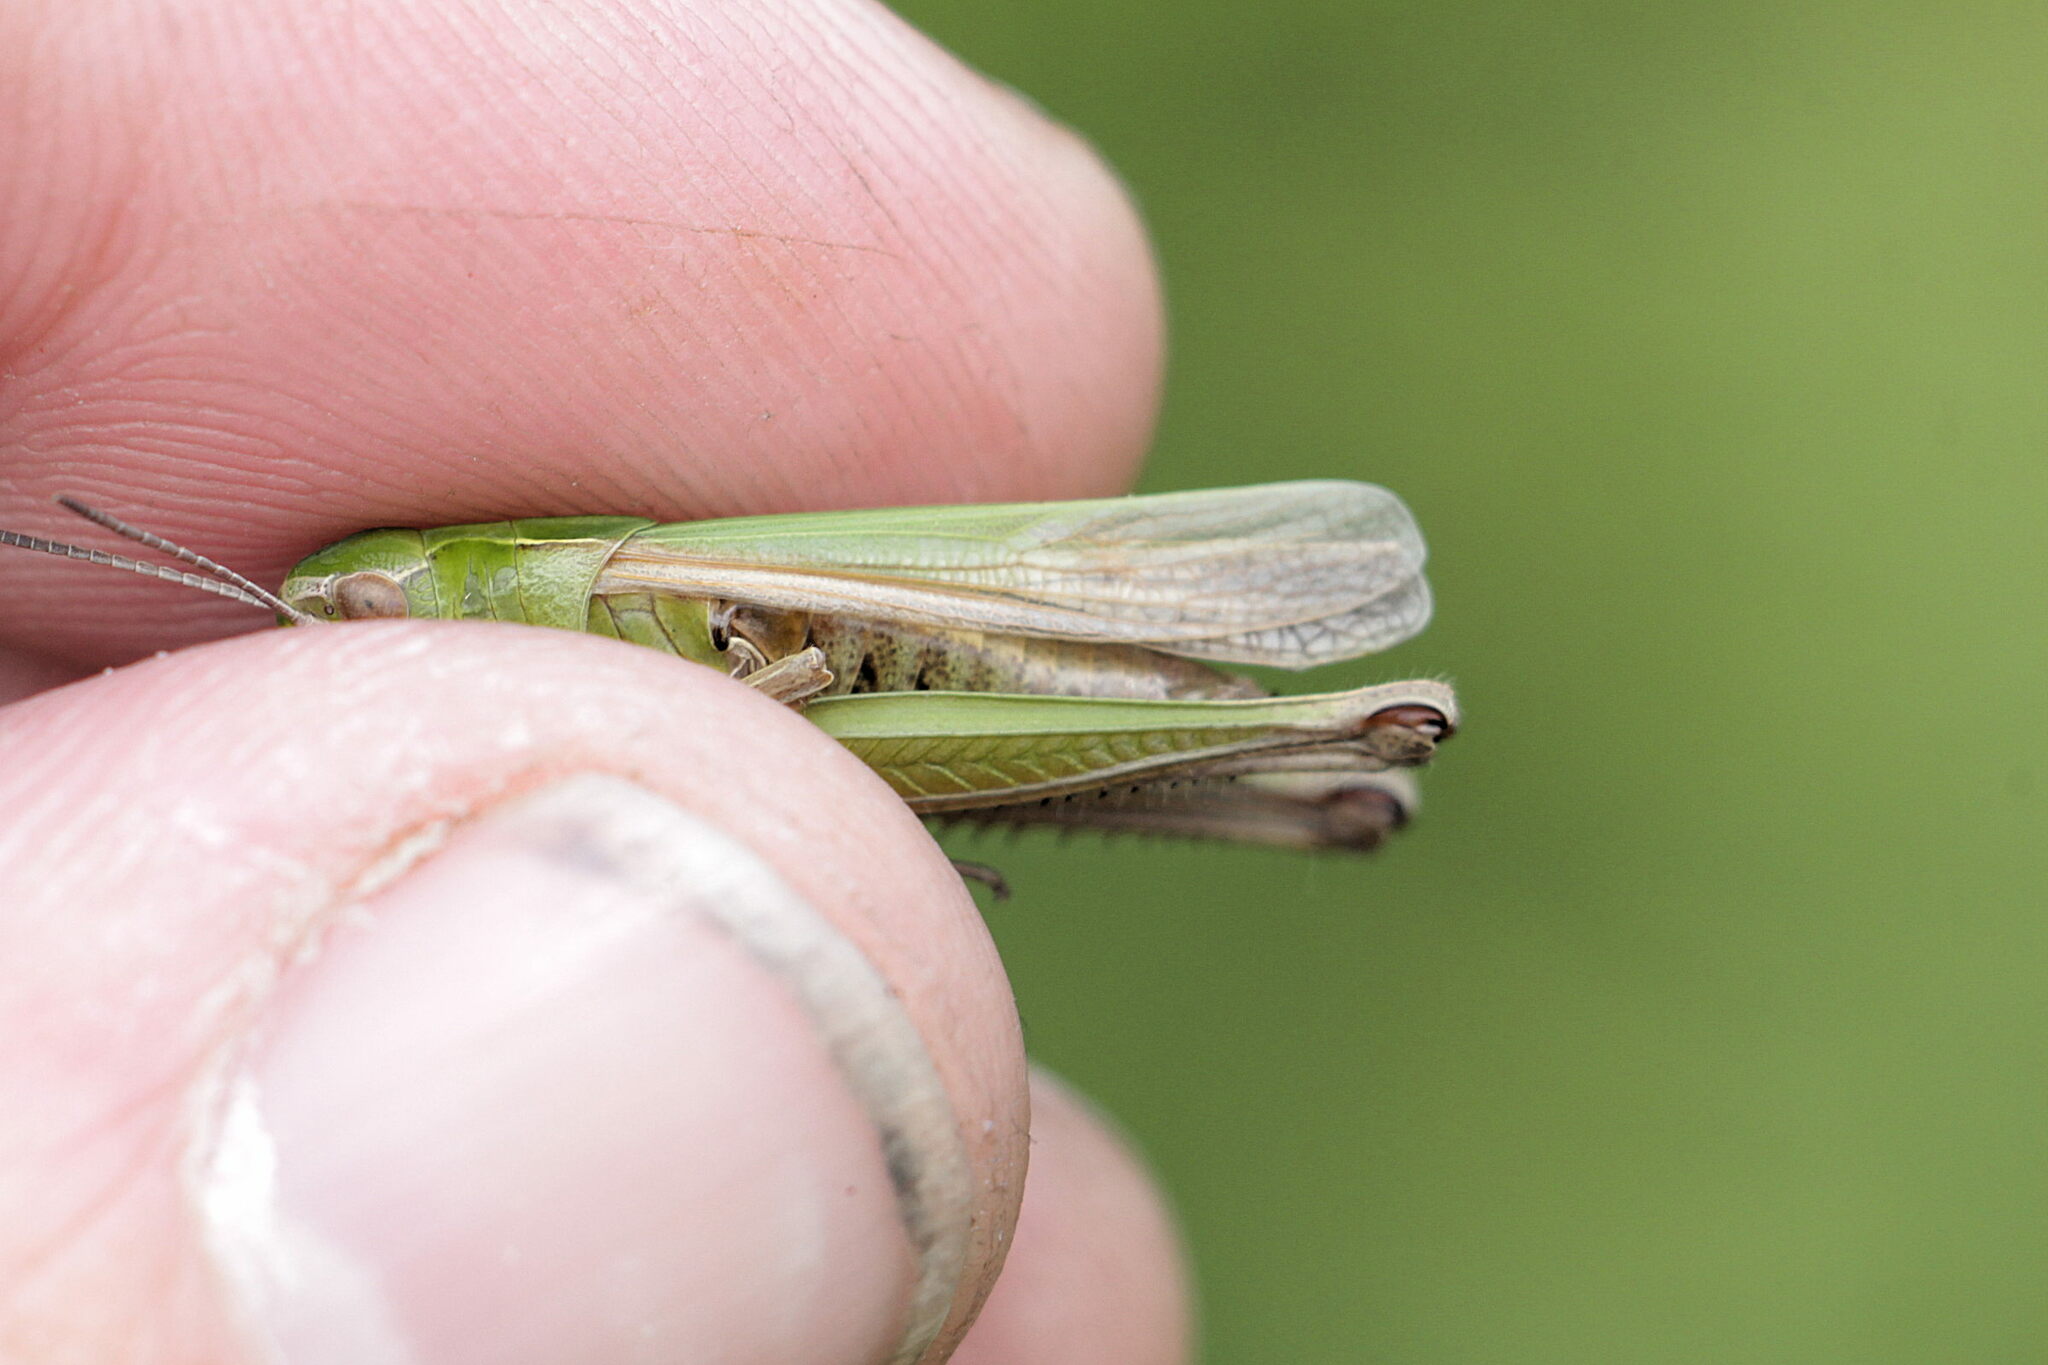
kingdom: Animalia
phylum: Arthropoda
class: Insecta
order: Orthoptera
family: Acrididae
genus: Omocestus
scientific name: Omocestus viridulus
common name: Common green grasshopper
